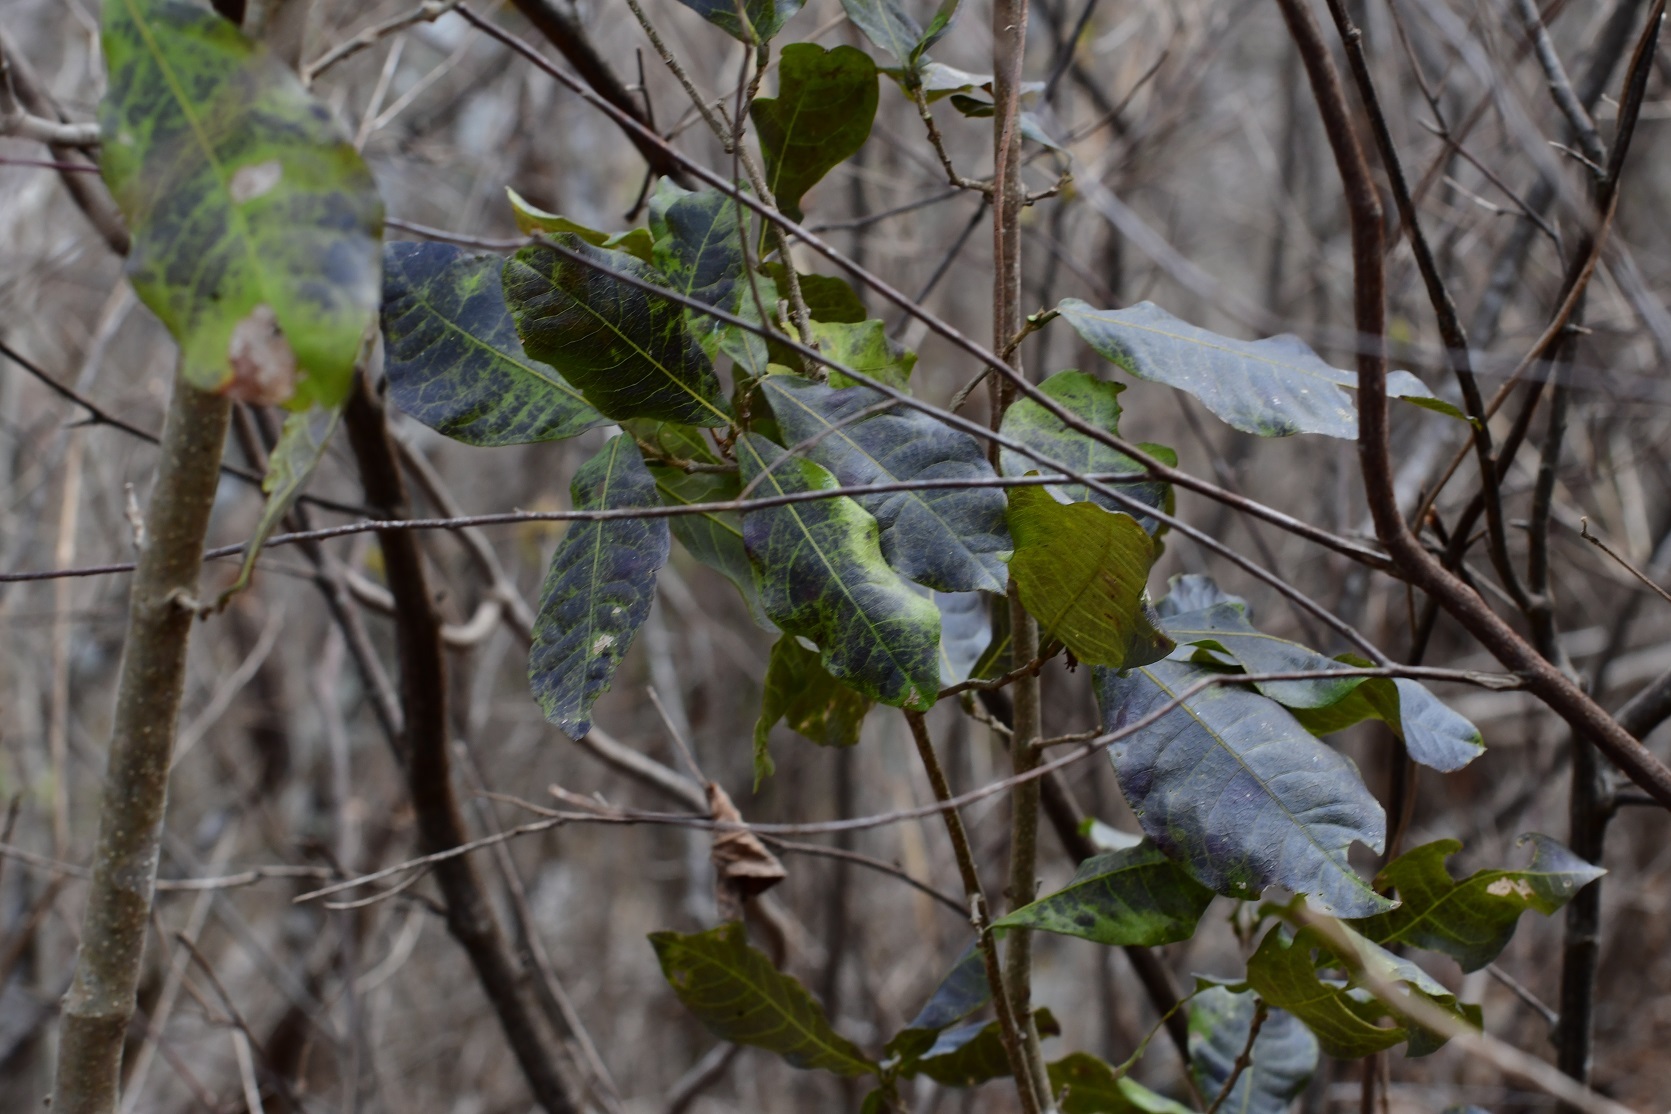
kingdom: Plantae
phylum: Tracheophyta
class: Magnoliopsida
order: Lamiales
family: Verbenaceae
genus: Petrea
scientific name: Petrea asperifolia
